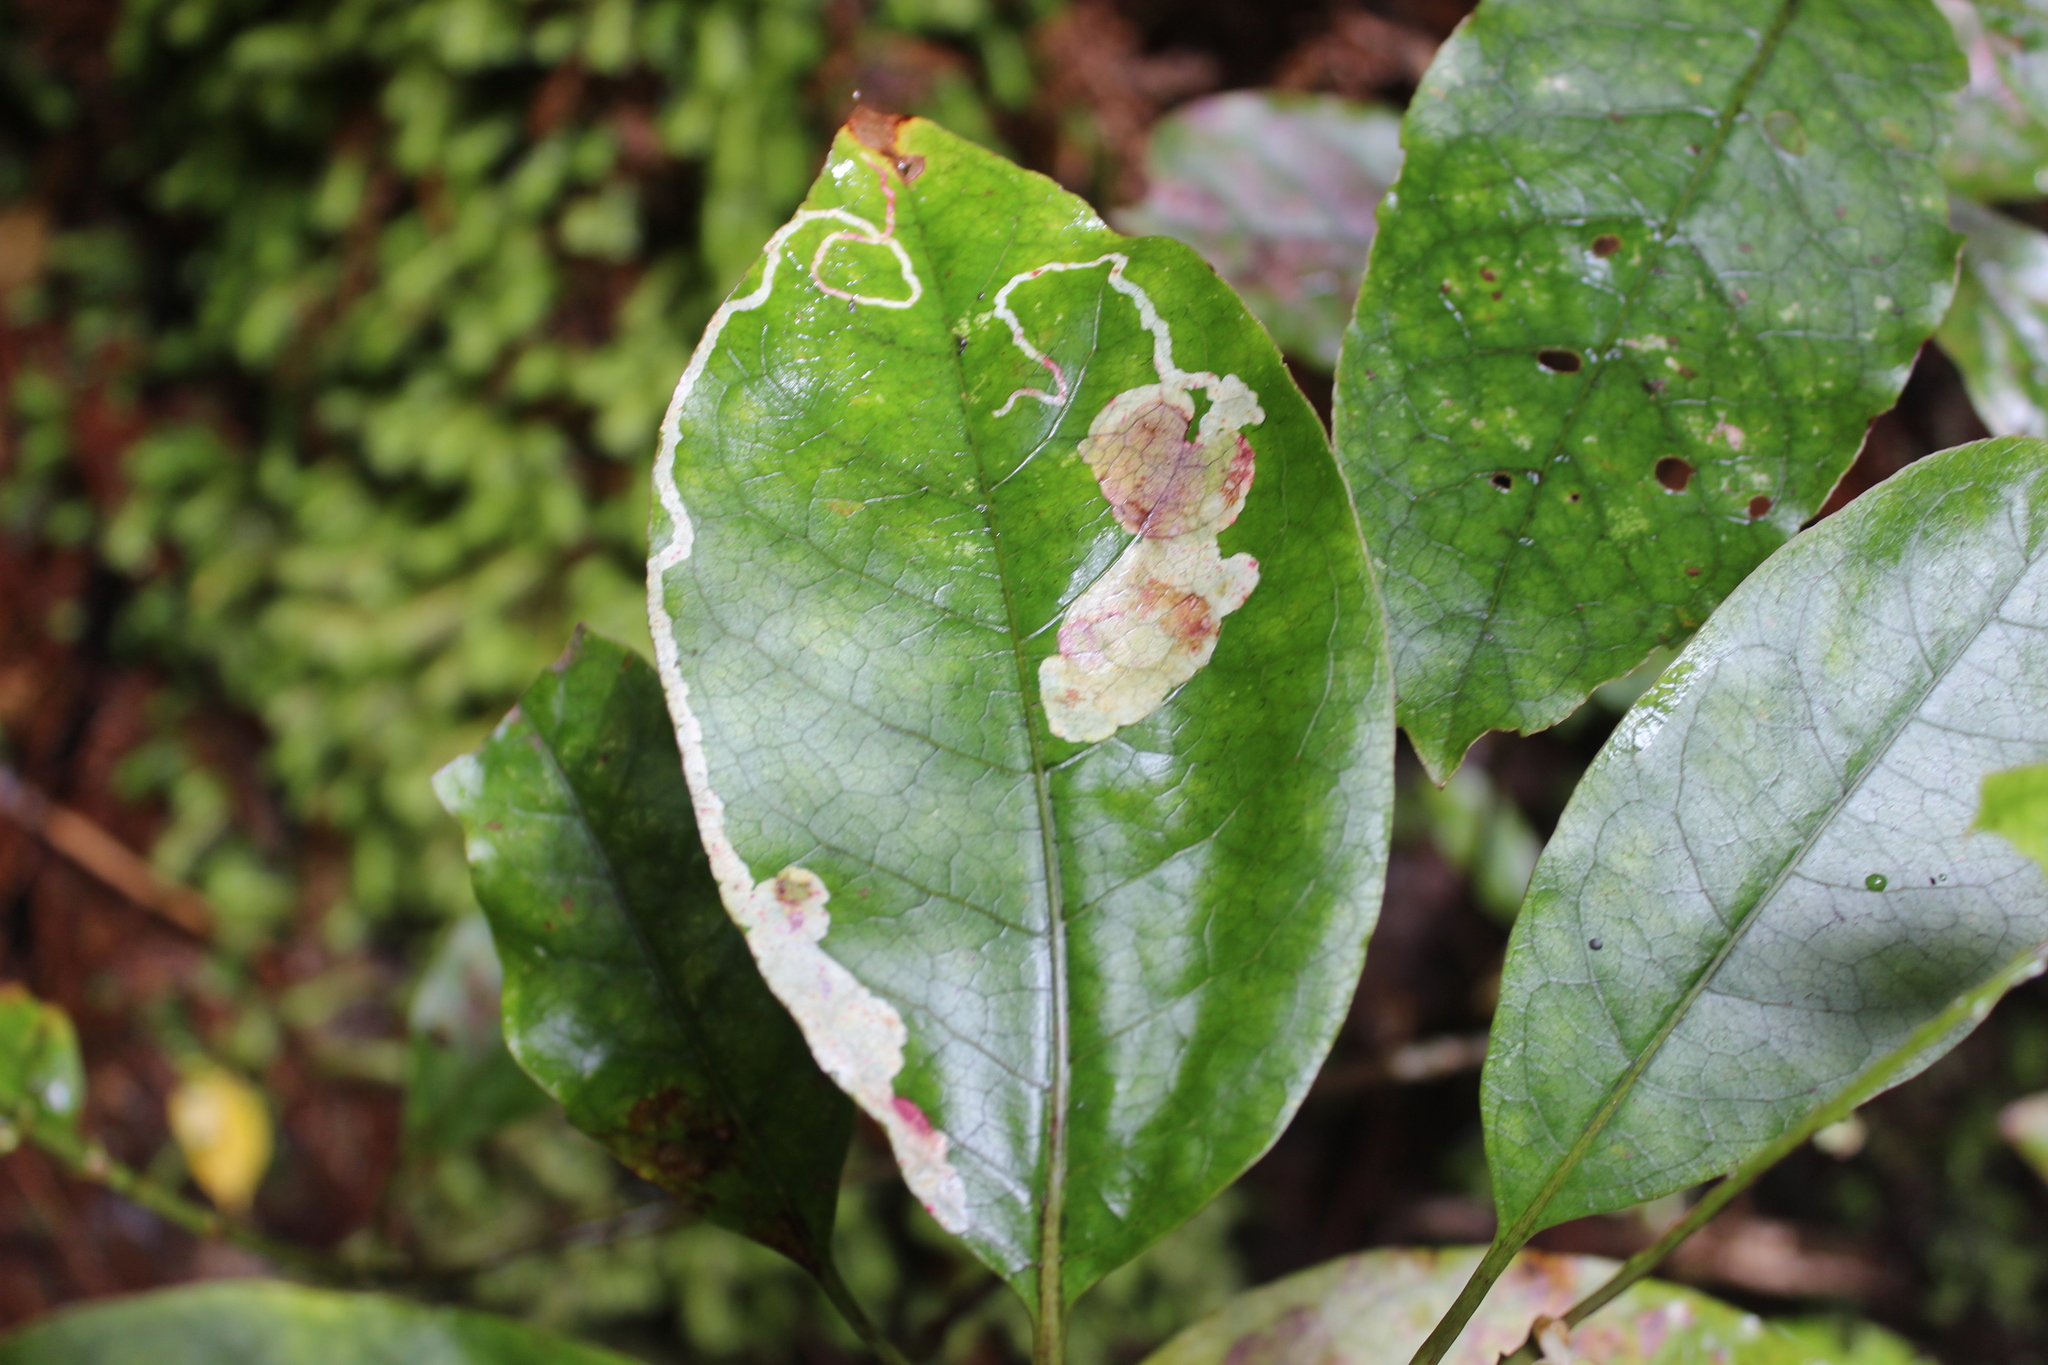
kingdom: Animalia
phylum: Arthropoda
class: Insecta
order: Lepidoptera
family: Gracillariidae
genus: Corythoxestis
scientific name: Corythoxestis zorionella
